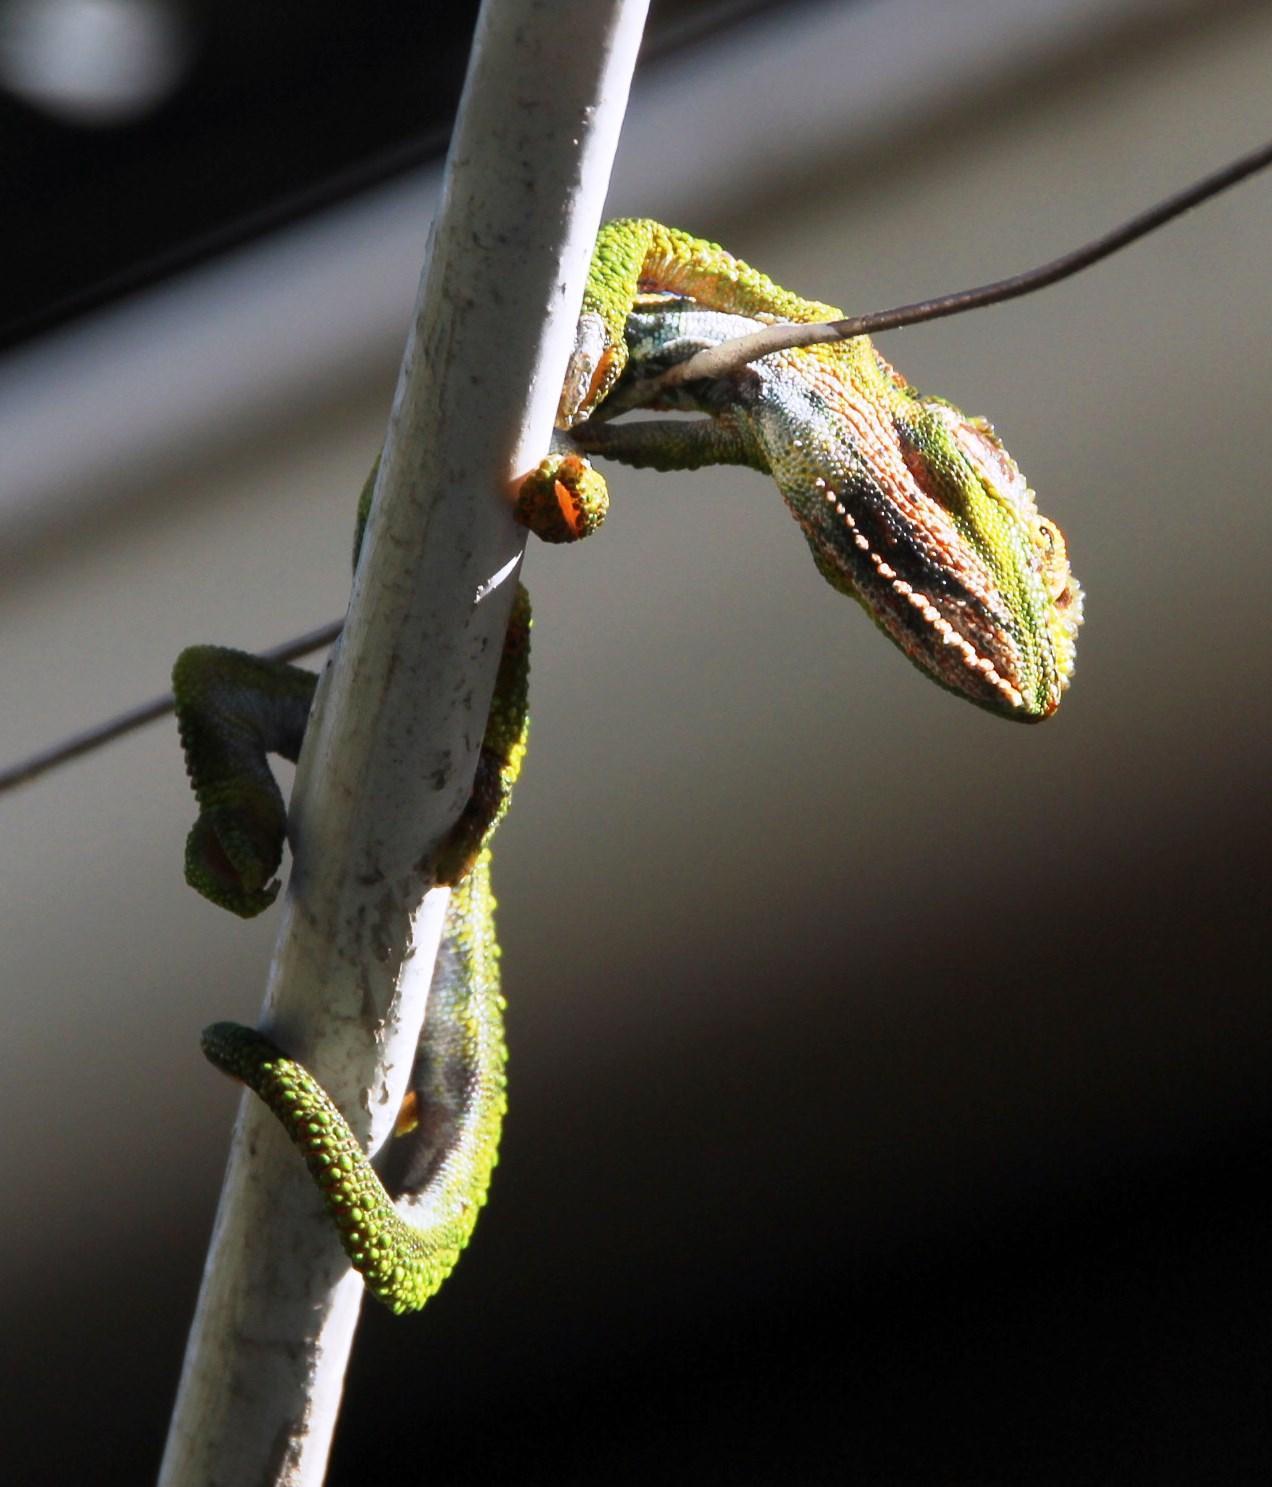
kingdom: Animalia
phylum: Chordata
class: Squamata
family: Chamaeleonidae
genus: Bradypodion
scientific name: Bradypodion pumilum
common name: Cape dwarf chameleon
